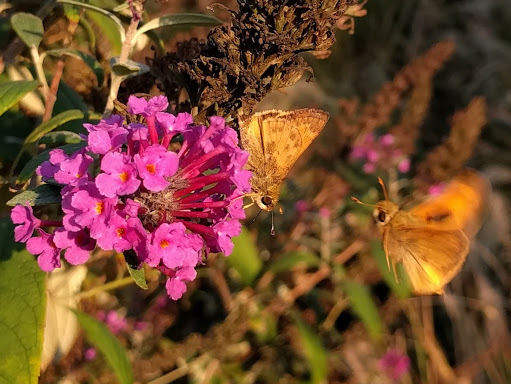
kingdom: Animalia
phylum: Arthropoda
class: Insecta
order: Lepidoptera
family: Hesperiidae
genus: Atalopedes
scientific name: Atalopedes
